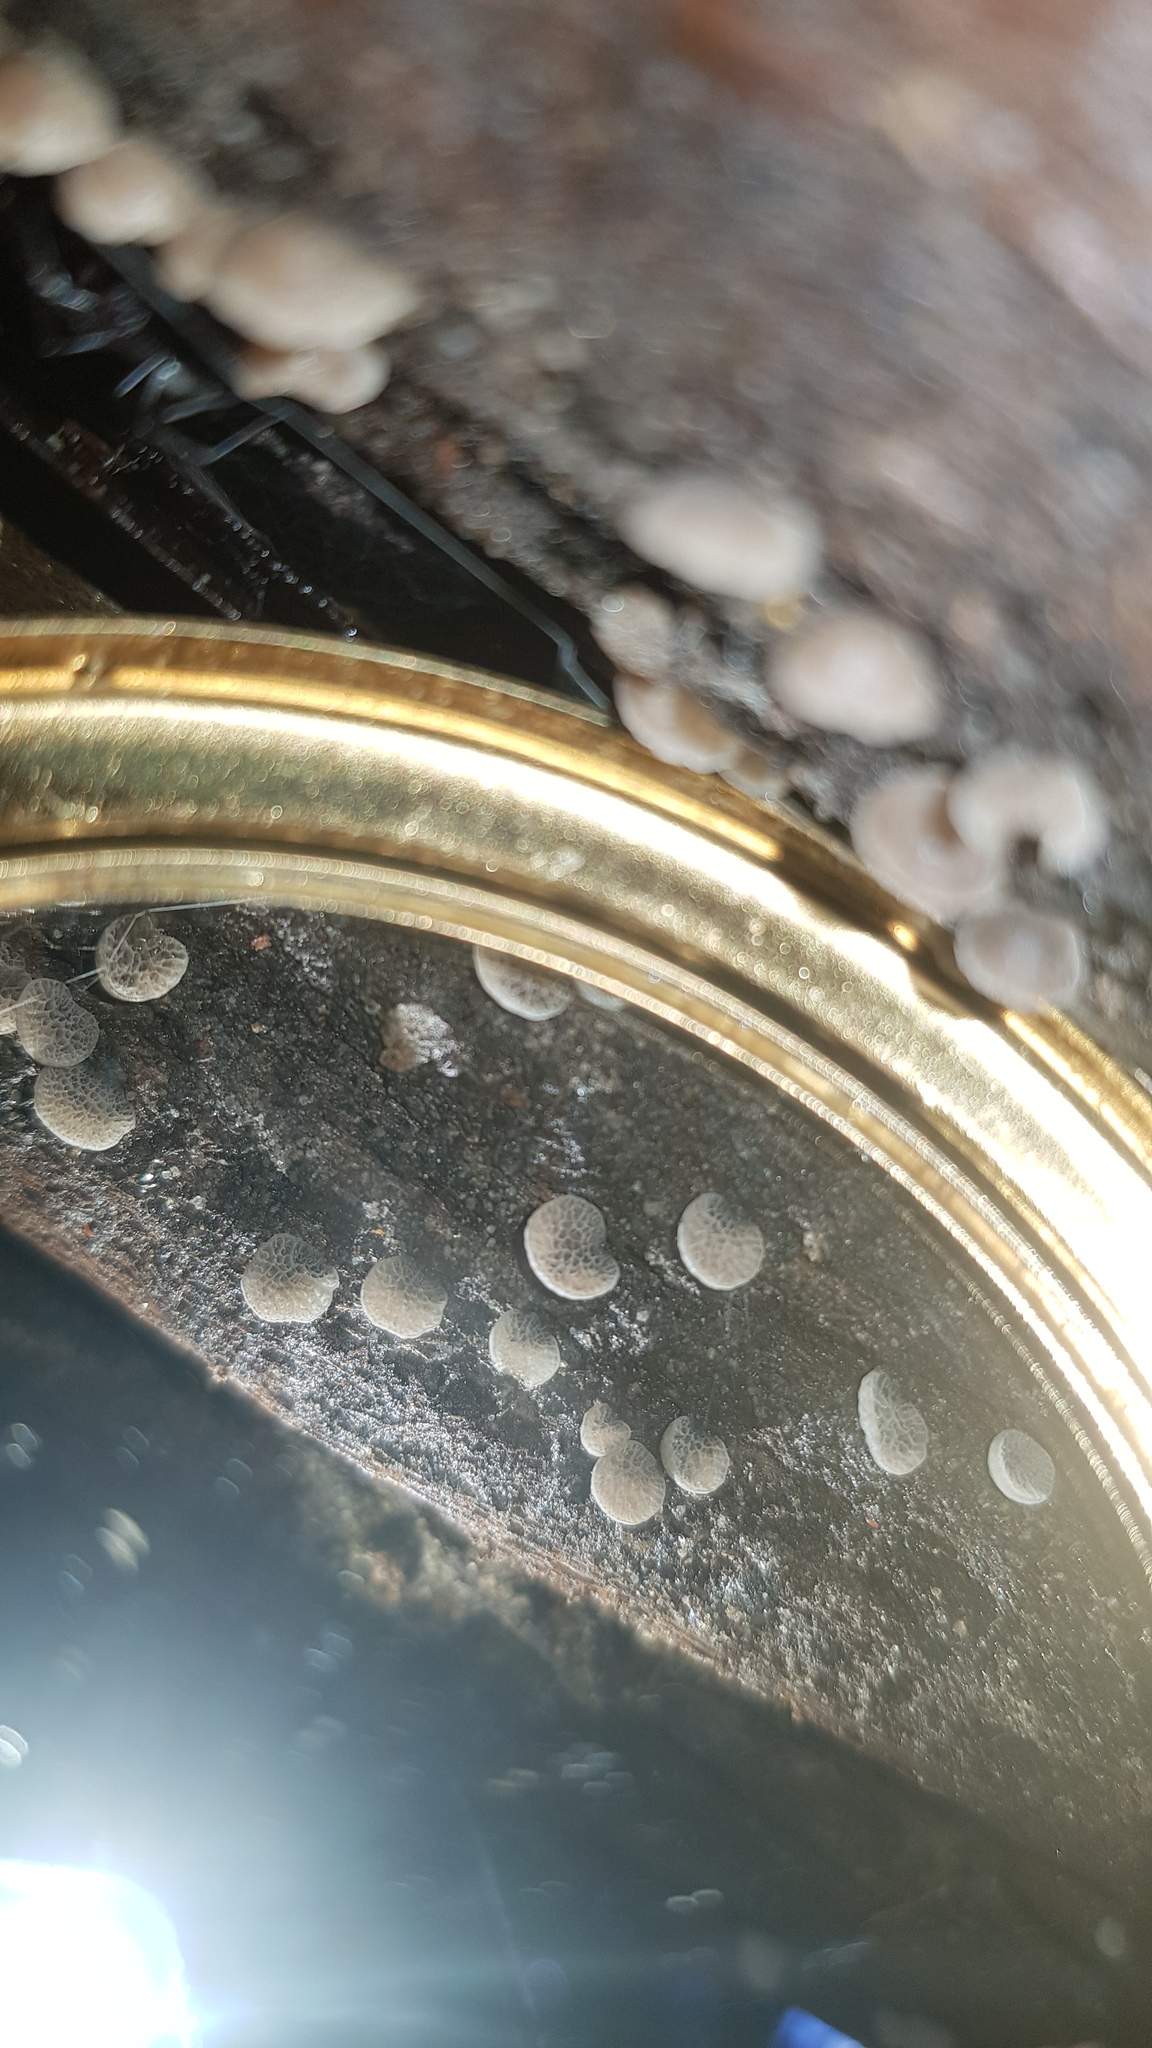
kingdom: Fungi
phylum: Basidiomycota
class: Agaricomycetes
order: Agaricales
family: Pleurotaceae
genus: Resupinatus
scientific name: Resupinatus merulioides
